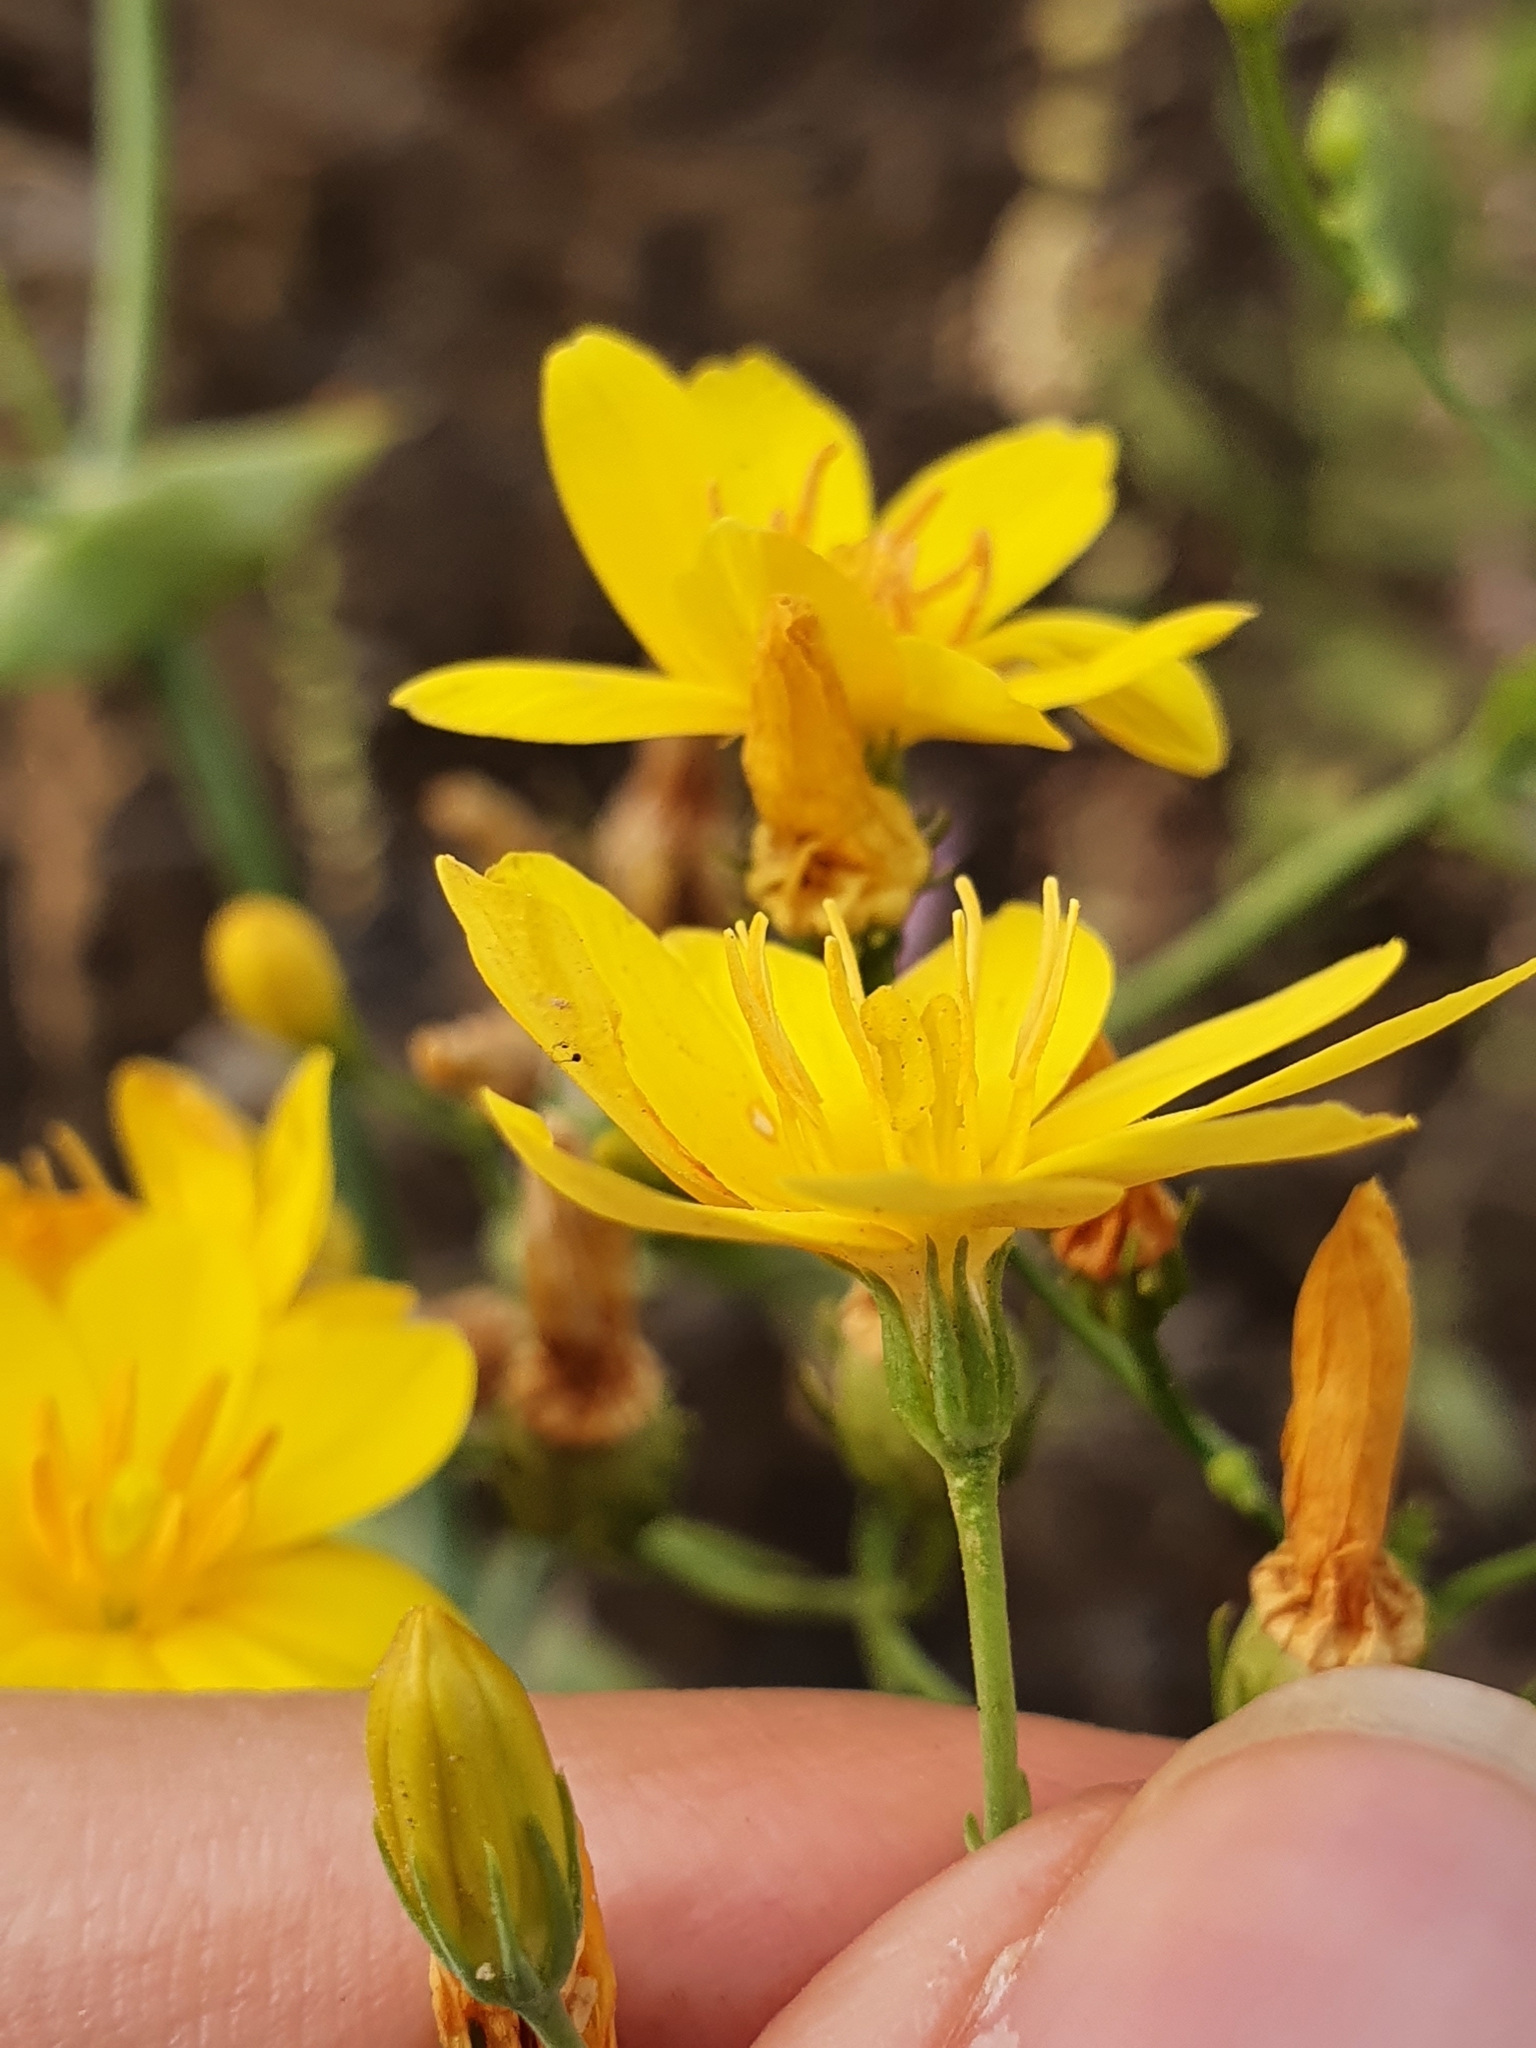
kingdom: Plantae
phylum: Tracheophyta
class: Magnoliopsida
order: Gentianales
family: Gentianaceae
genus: Blackstonia
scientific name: Blackstonia grandiflora
